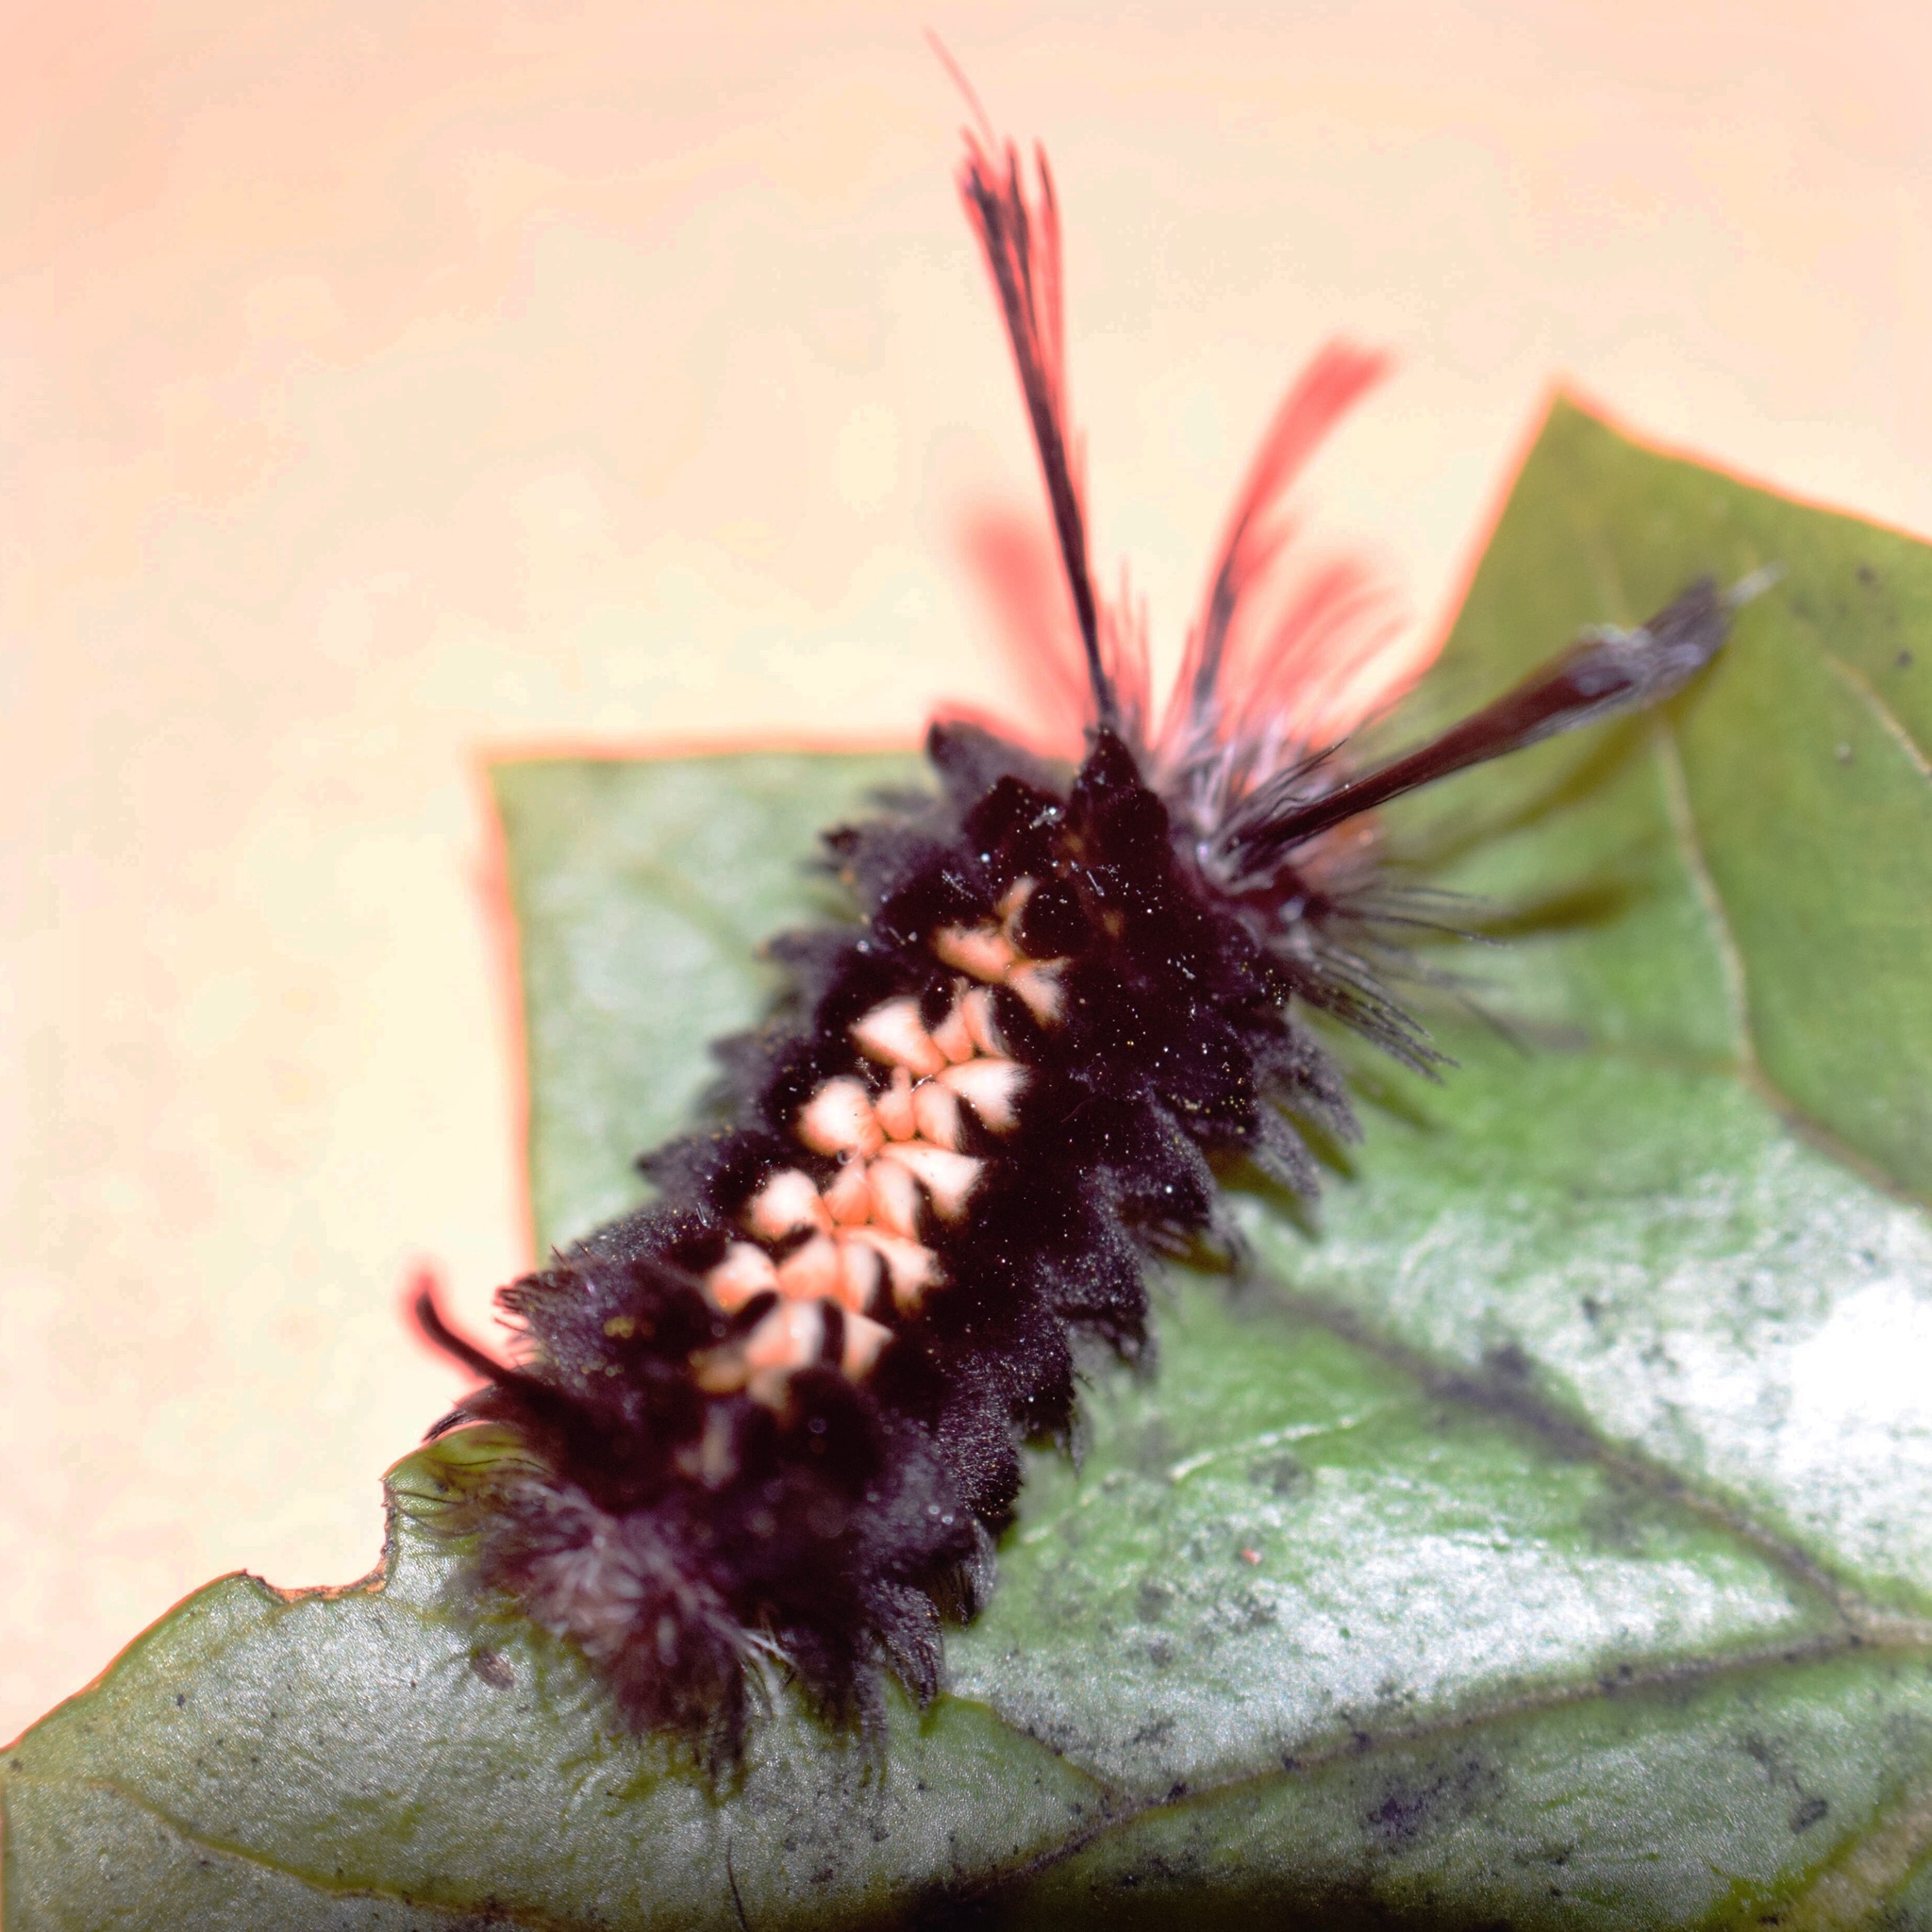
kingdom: Animalia
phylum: Arthropoda
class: Insecta
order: Lepidoptera
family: Erebidae
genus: Euchromia
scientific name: Euchromia amoena
